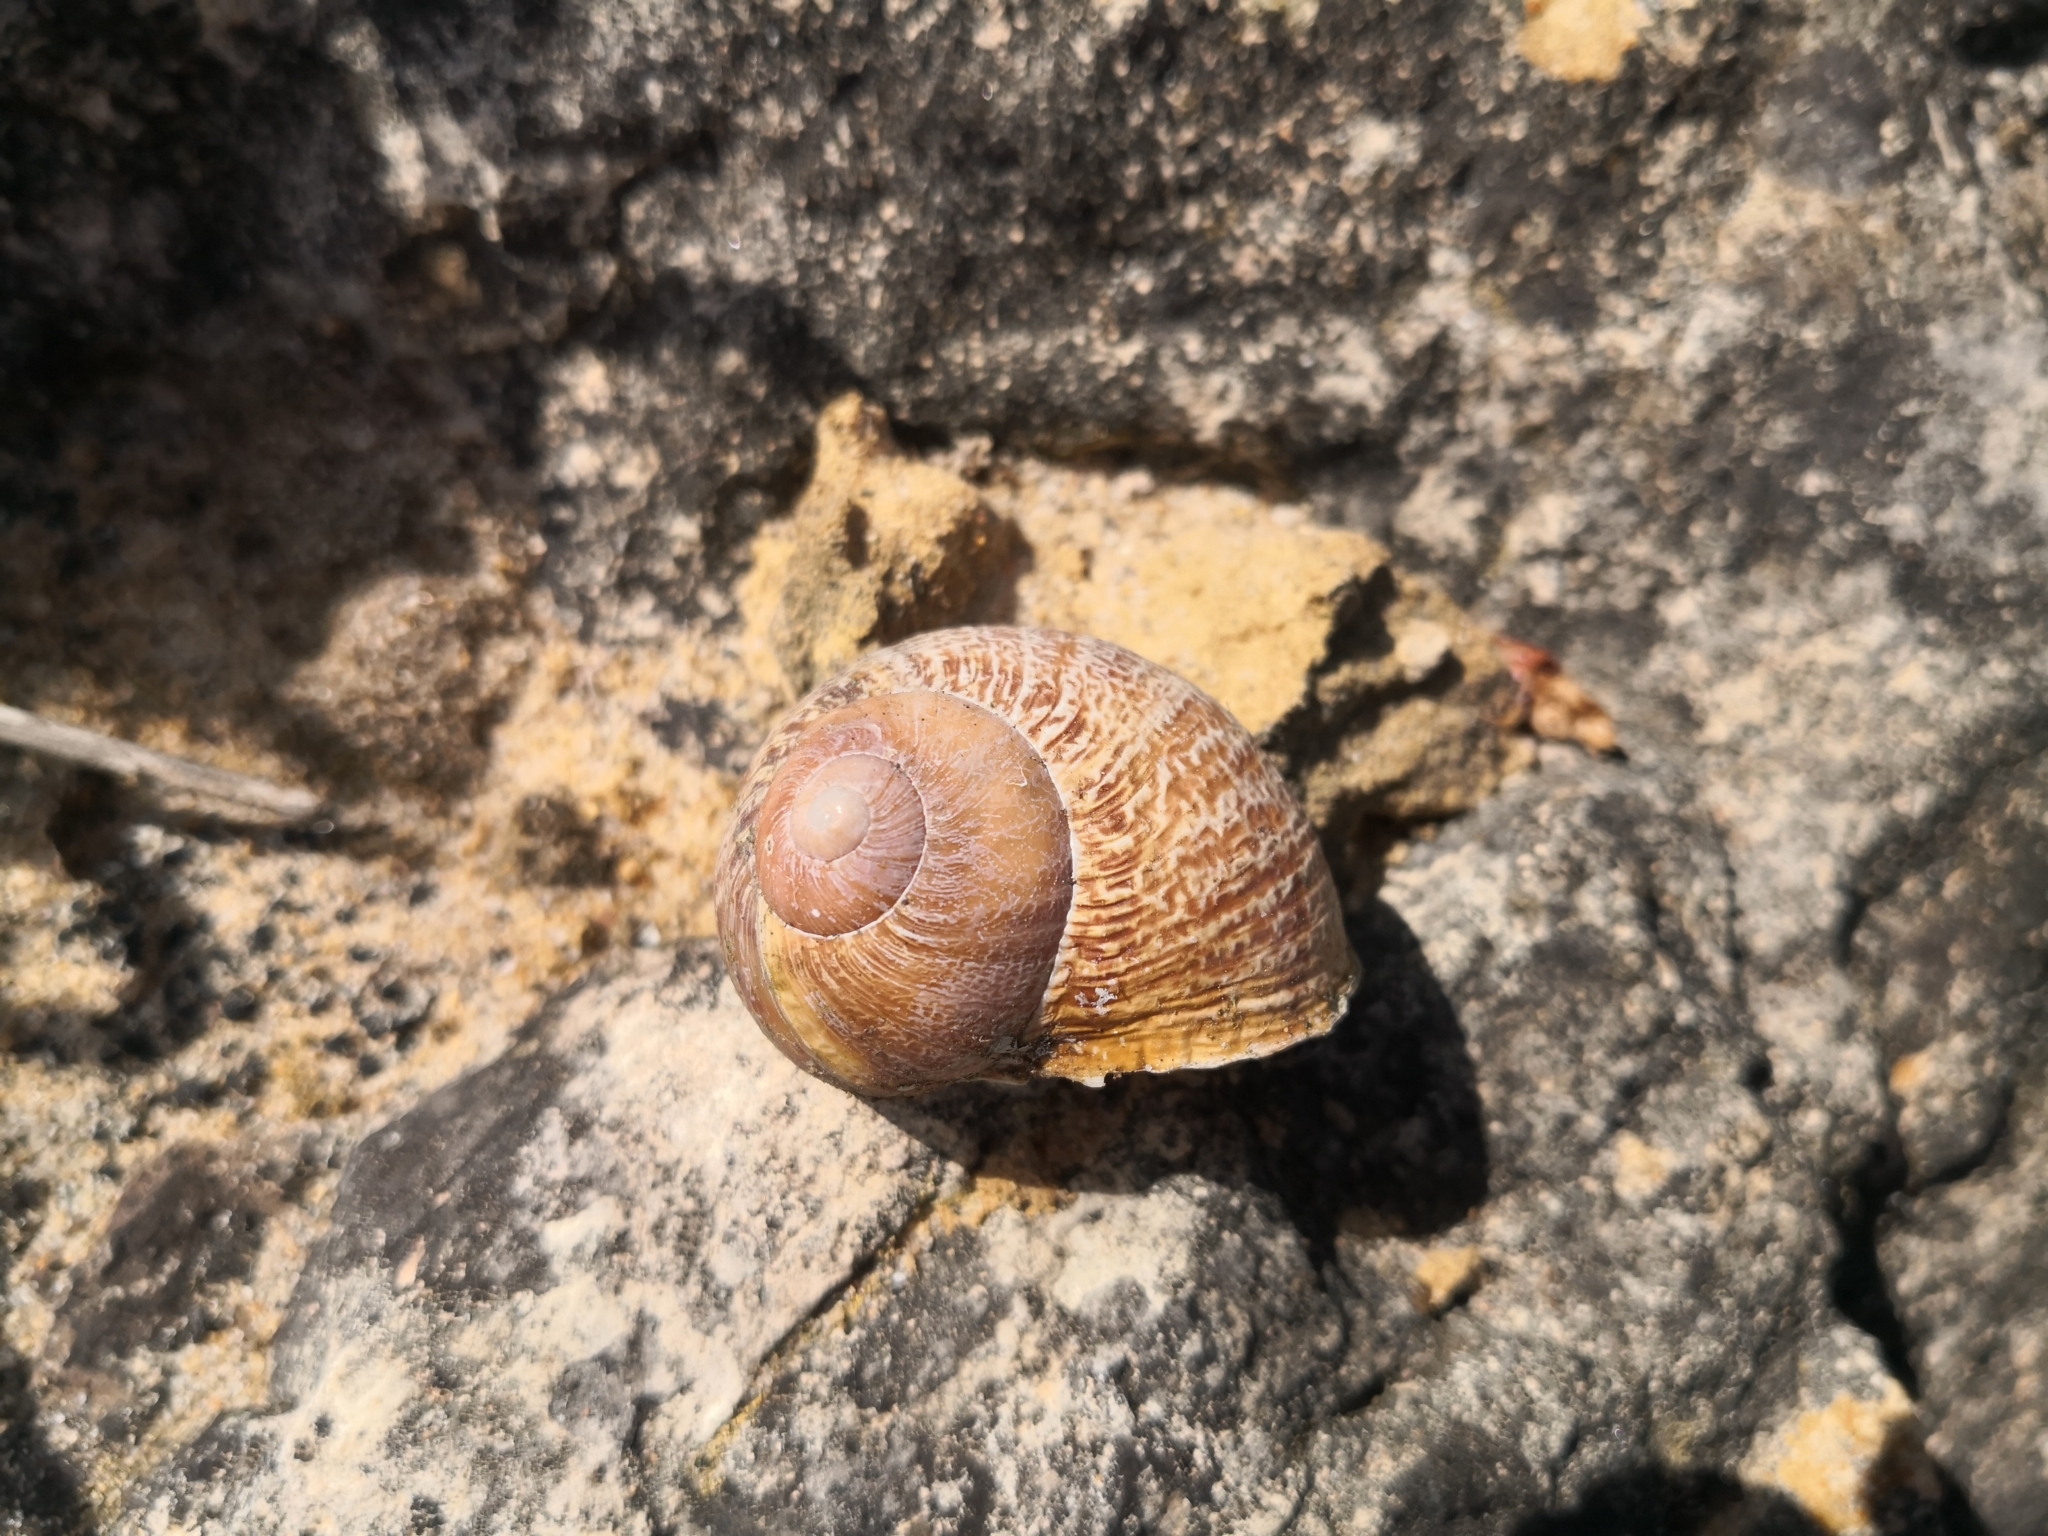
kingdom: Animalia
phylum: Mollusca
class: Gastropoda
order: Stylommatophora
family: Helicidae
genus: Cornu
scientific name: Cornu aspersum
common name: Brown garden snail
